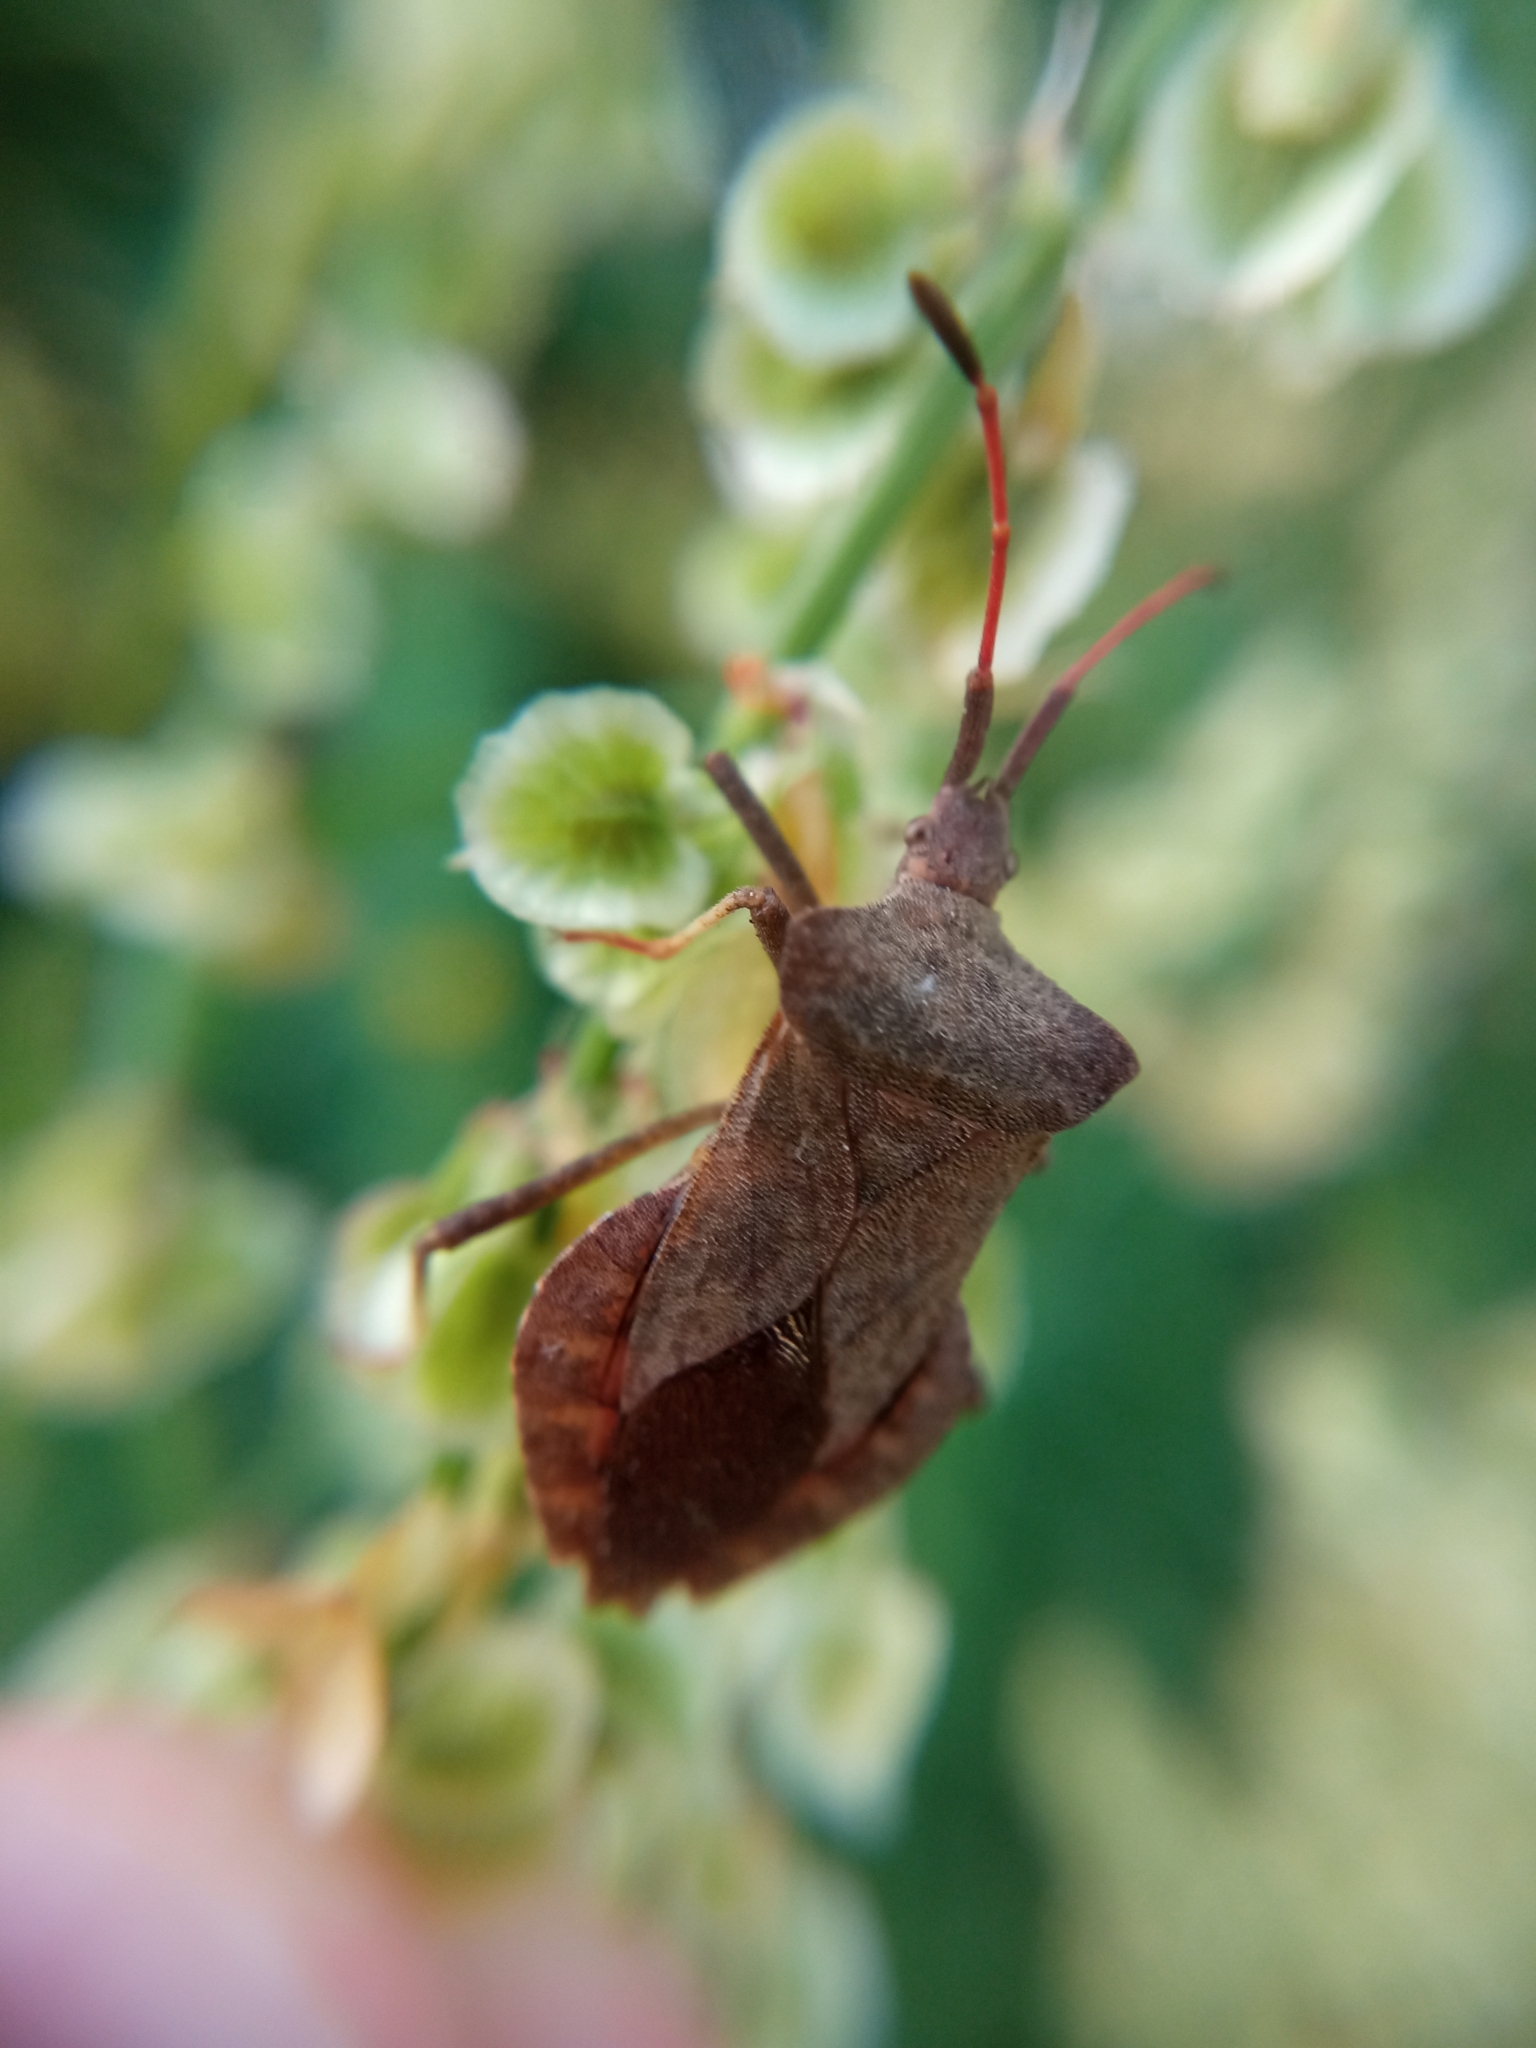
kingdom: Animalia
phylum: Arthropoda
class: Insecta
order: Hemiptera
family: Coreidae
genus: Coreus
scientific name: Coreus marginatus
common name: Dock bug
